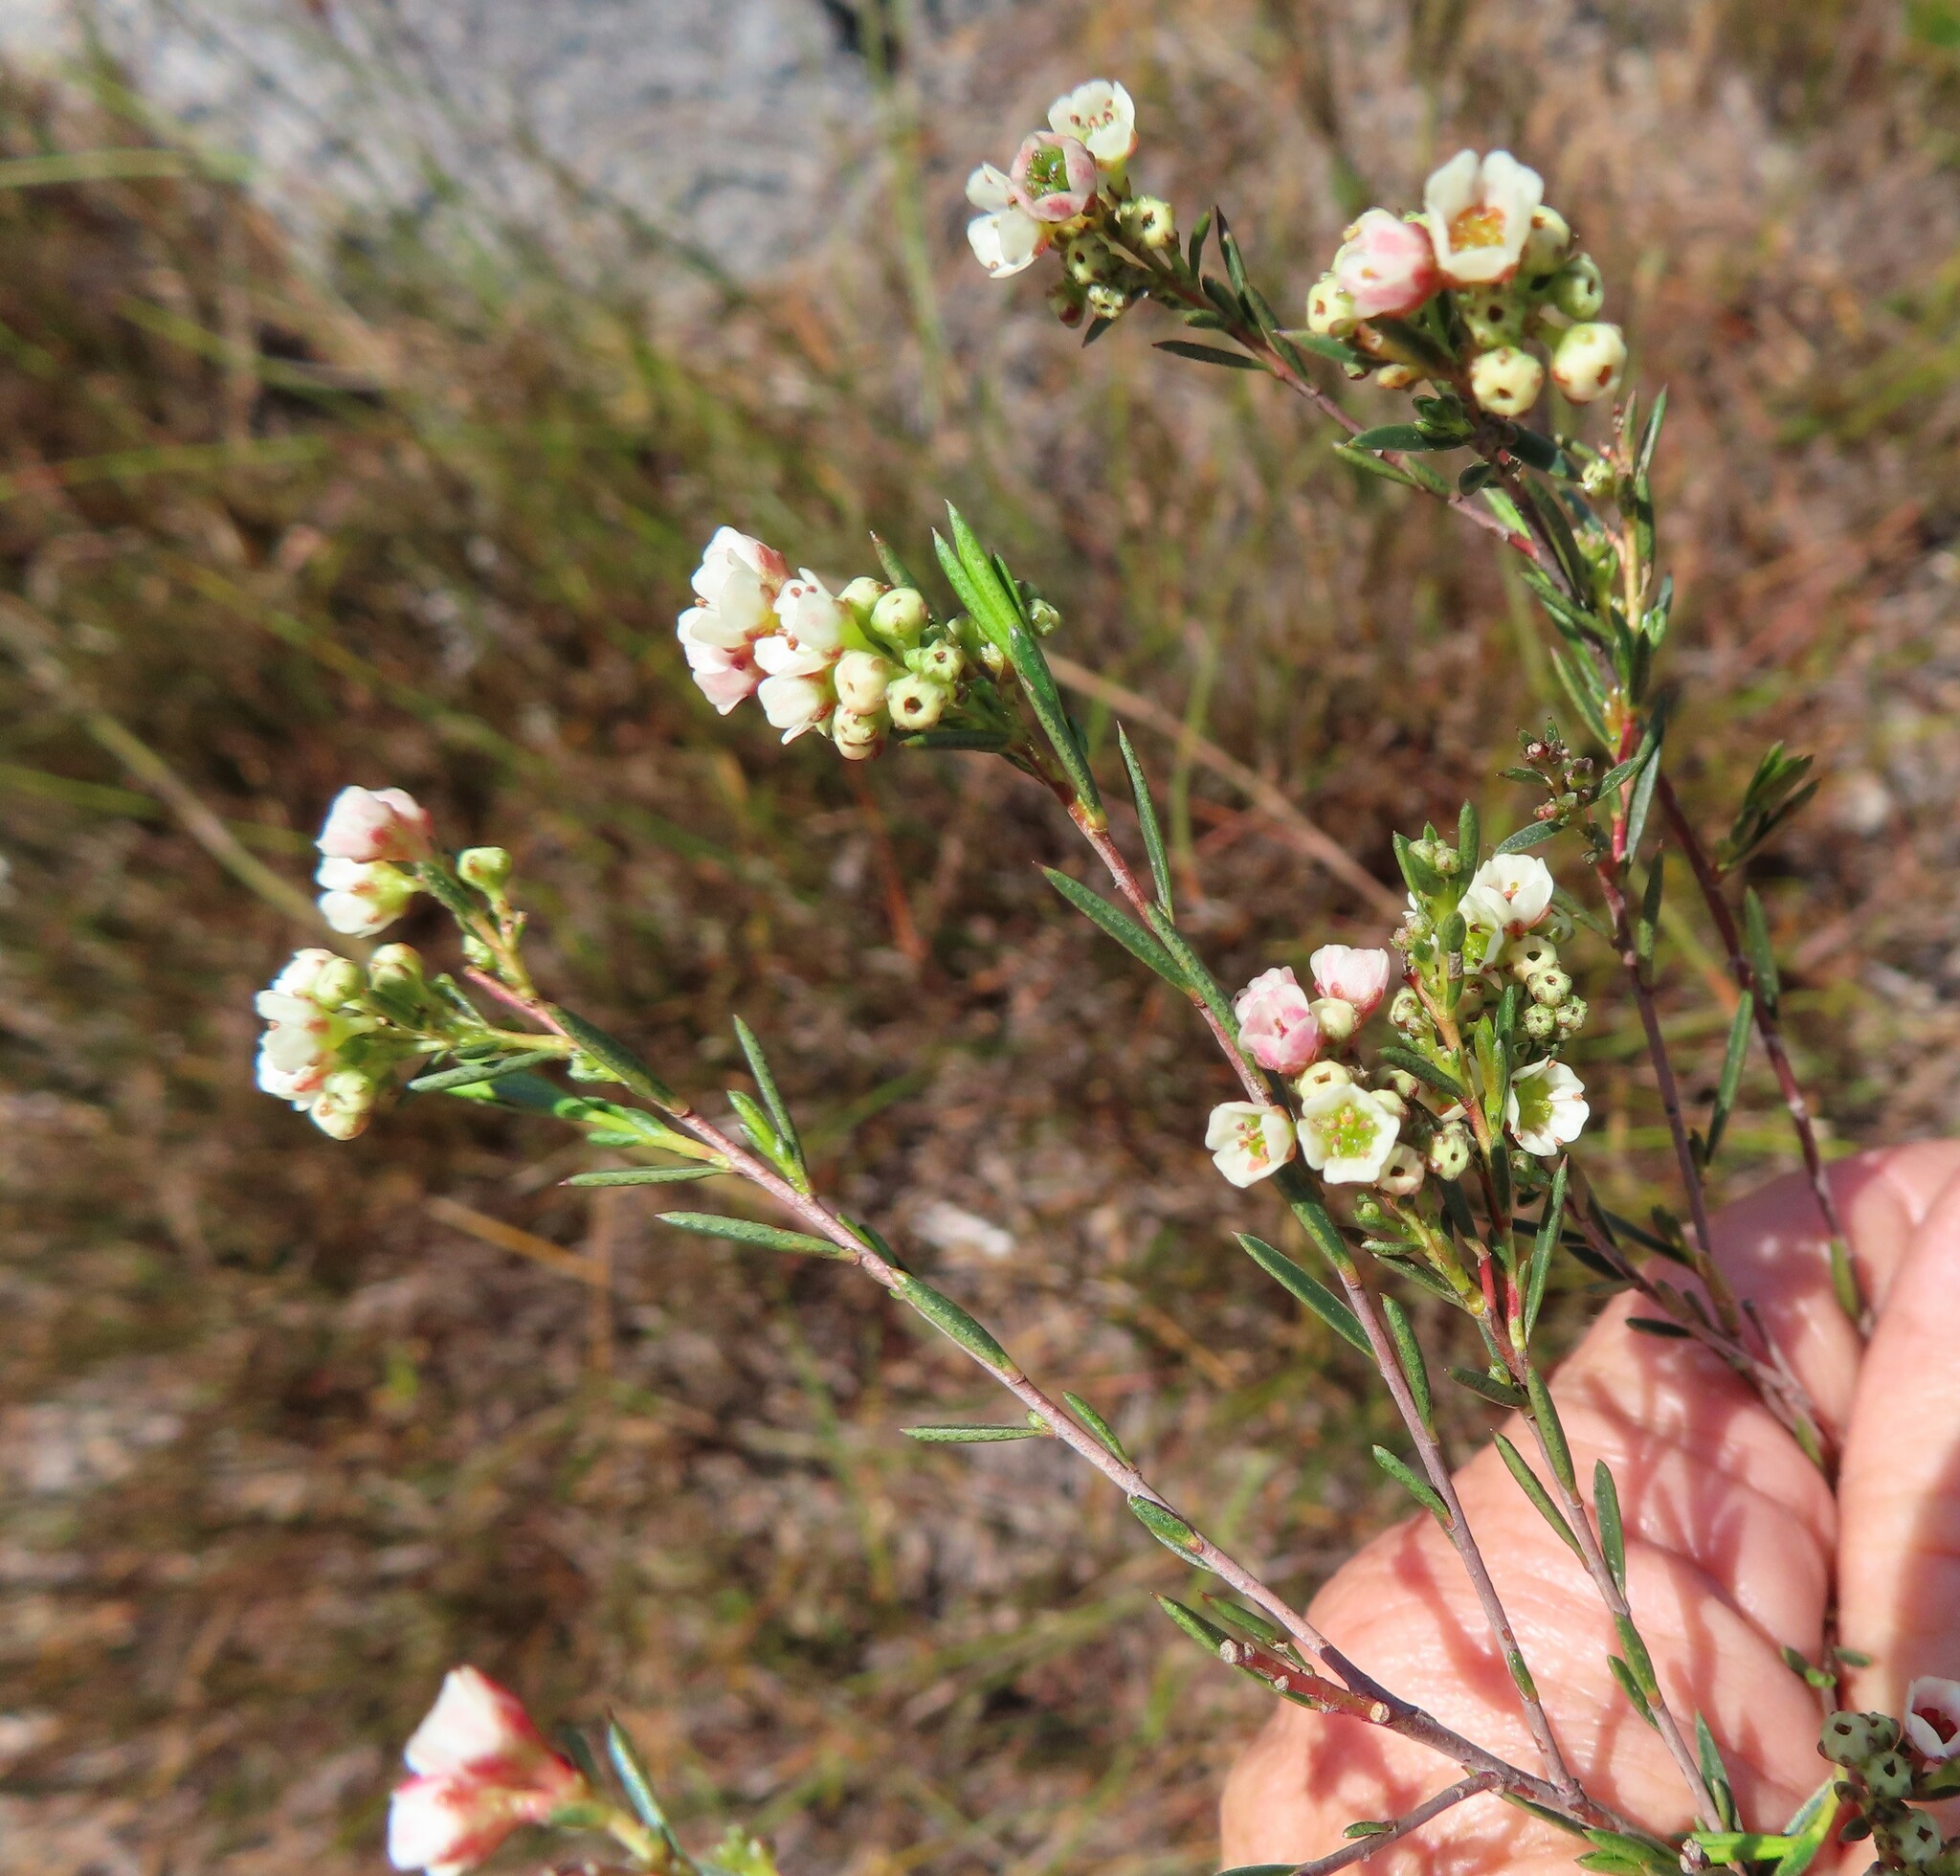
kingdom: Plantae
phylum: Tracheophyta
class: Magnoliopsida
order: Sapindales
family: Rutaceae
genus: Diosma
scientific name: Diosma hirsuta
